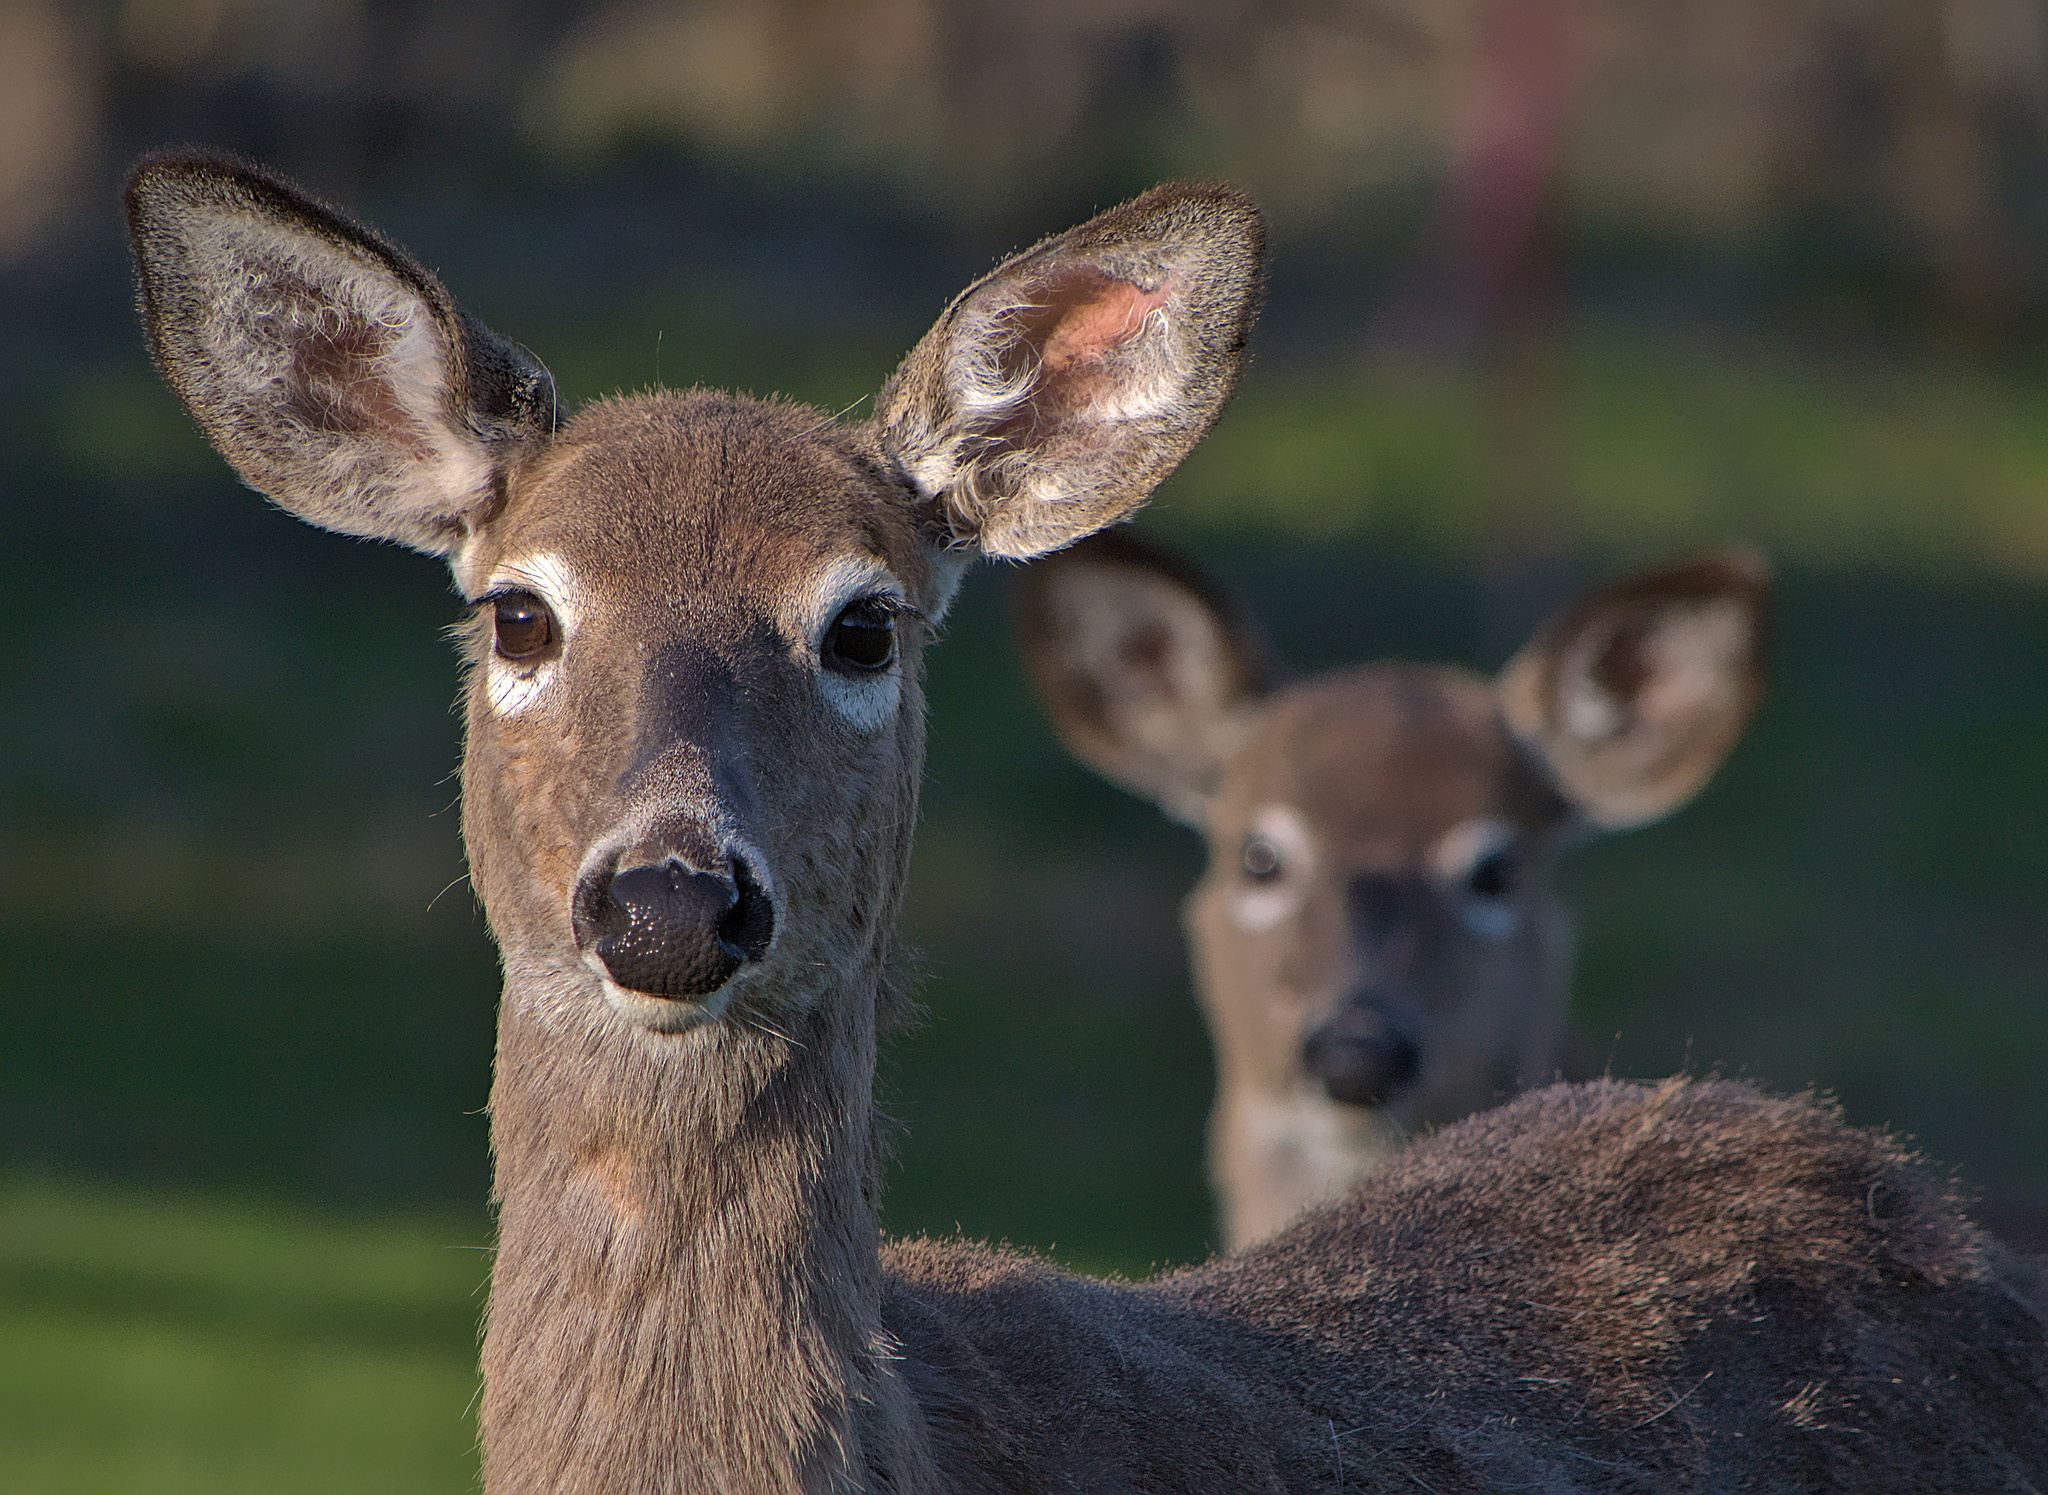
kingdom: Animalia
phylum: Chordata
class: Mammalia
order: Artiodactyla
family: Cervidae
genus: Odocoileus
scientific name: Odocoileus virginianus
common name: White-tailed deer
